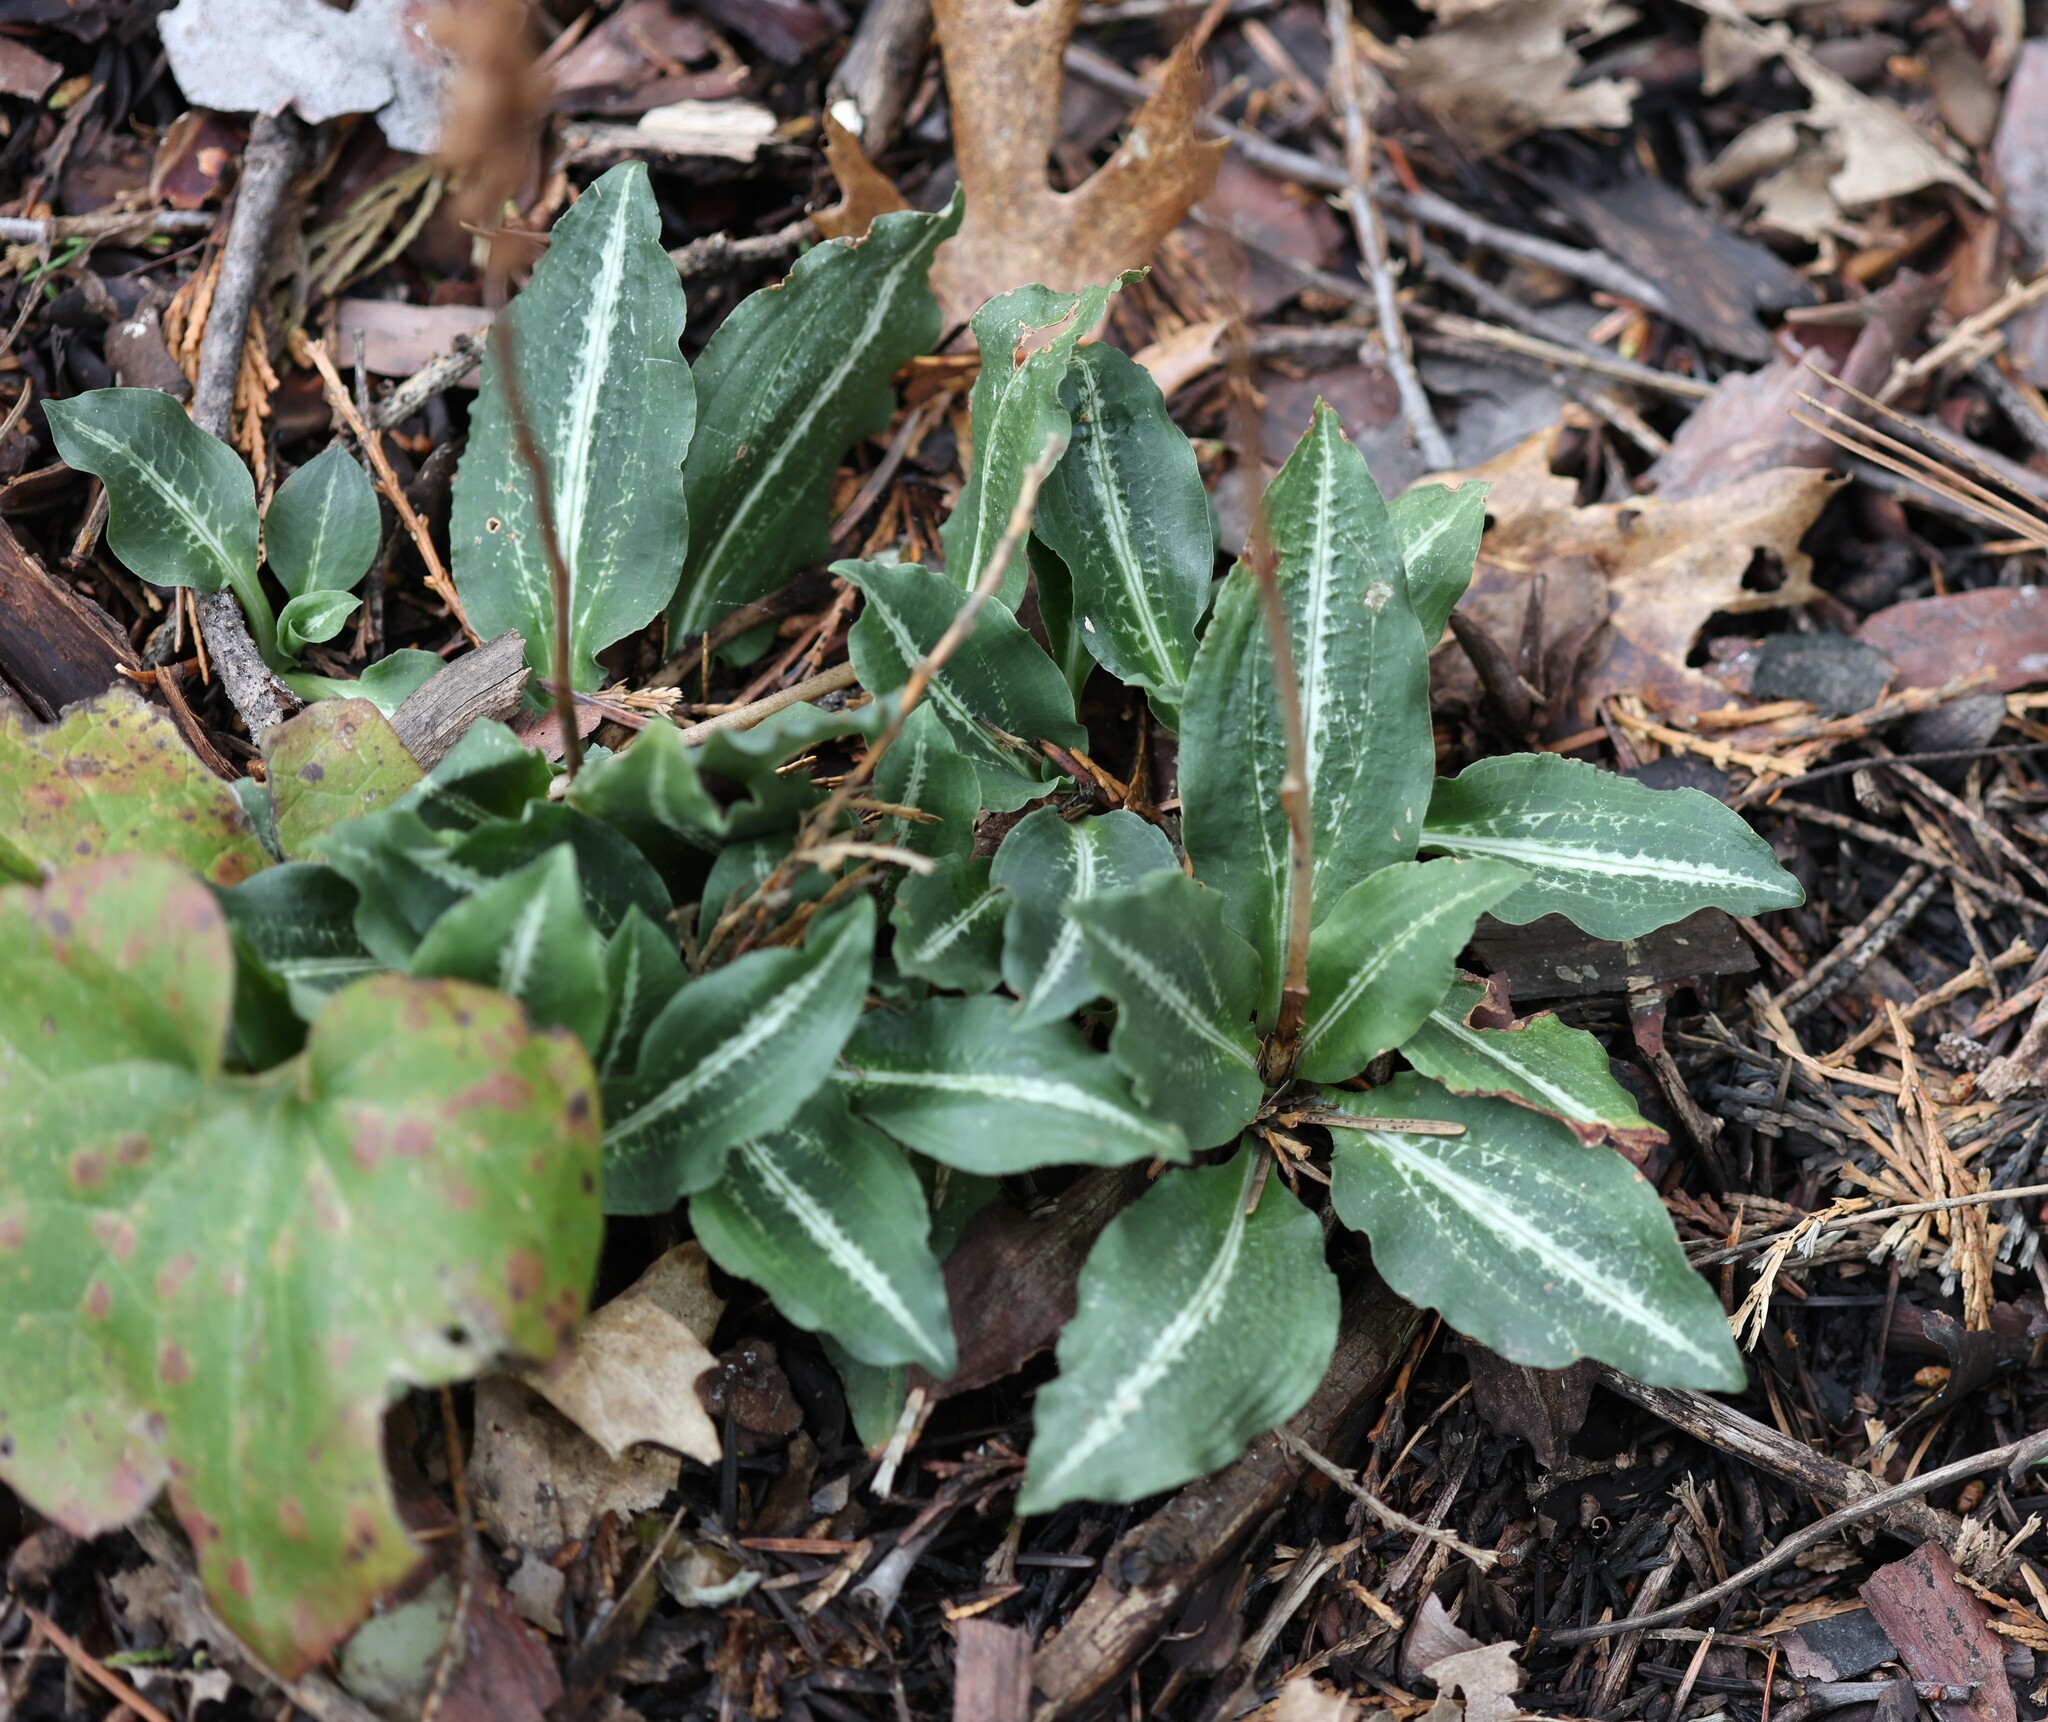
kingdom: Plantae
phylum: Tracheophyta
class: Liliopsida
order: Asparagales
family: Orchidaceae
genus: Goodyera
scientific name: Goodyera oblongifolia
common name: Giant rattlesnake-plantain
